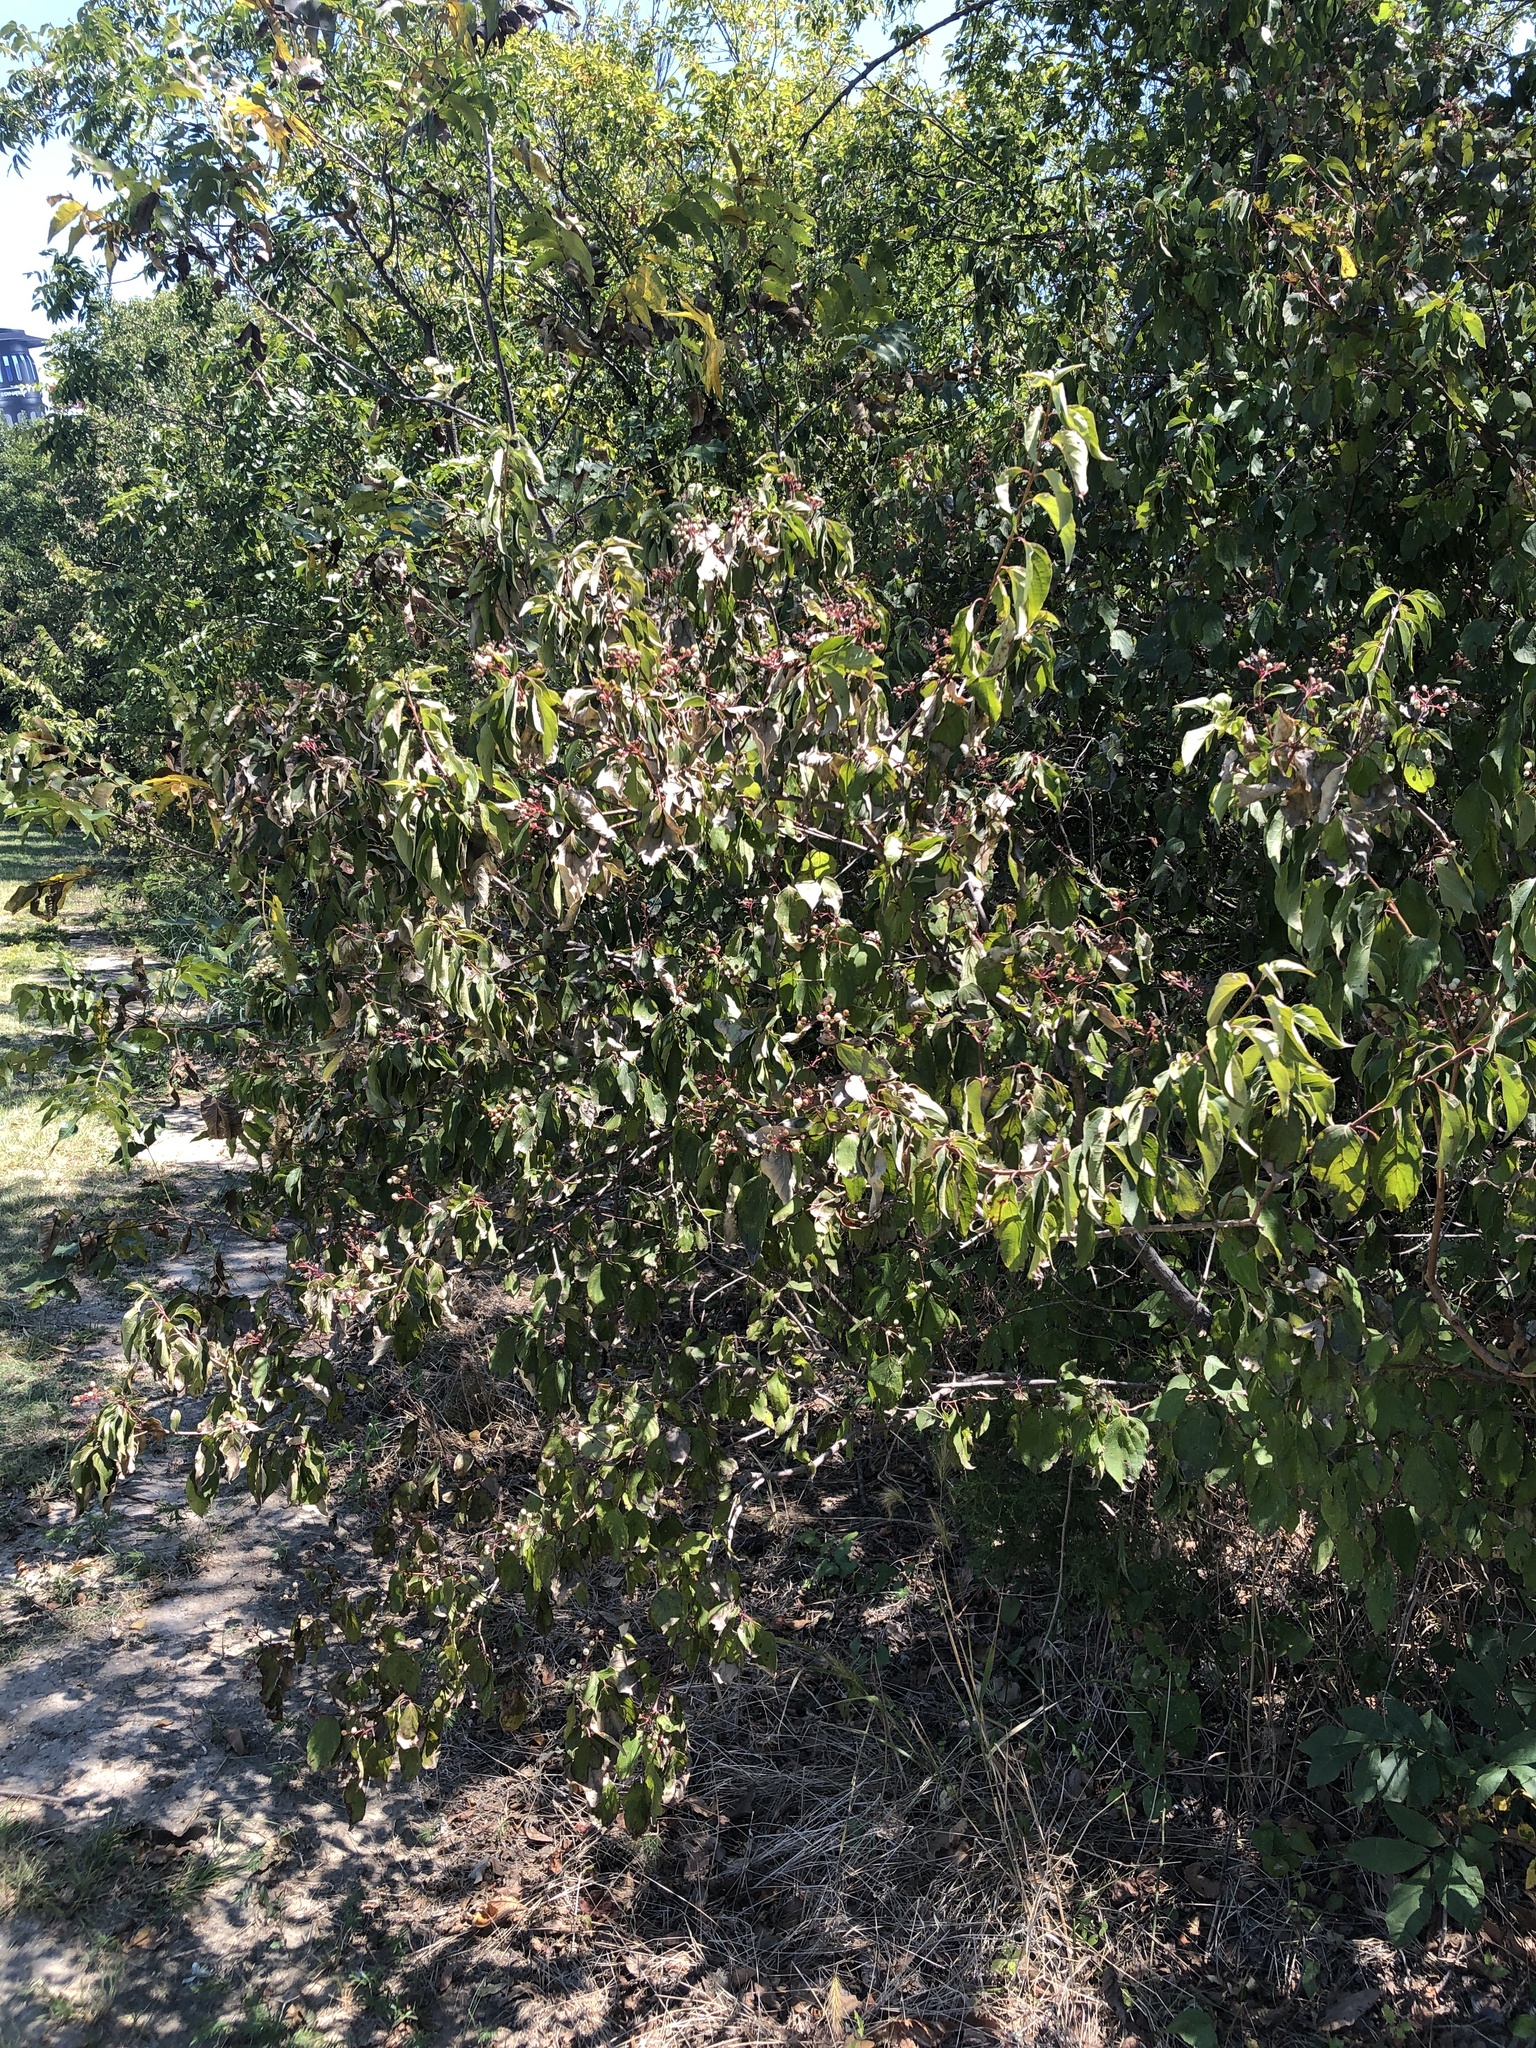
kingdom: Plantae
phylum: Tracheophyta
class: Magnoliopsida
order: Cornales
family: Cornaceae
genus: Cornus
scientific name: Cornus drummondii
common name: Rough-leaf dogwood
